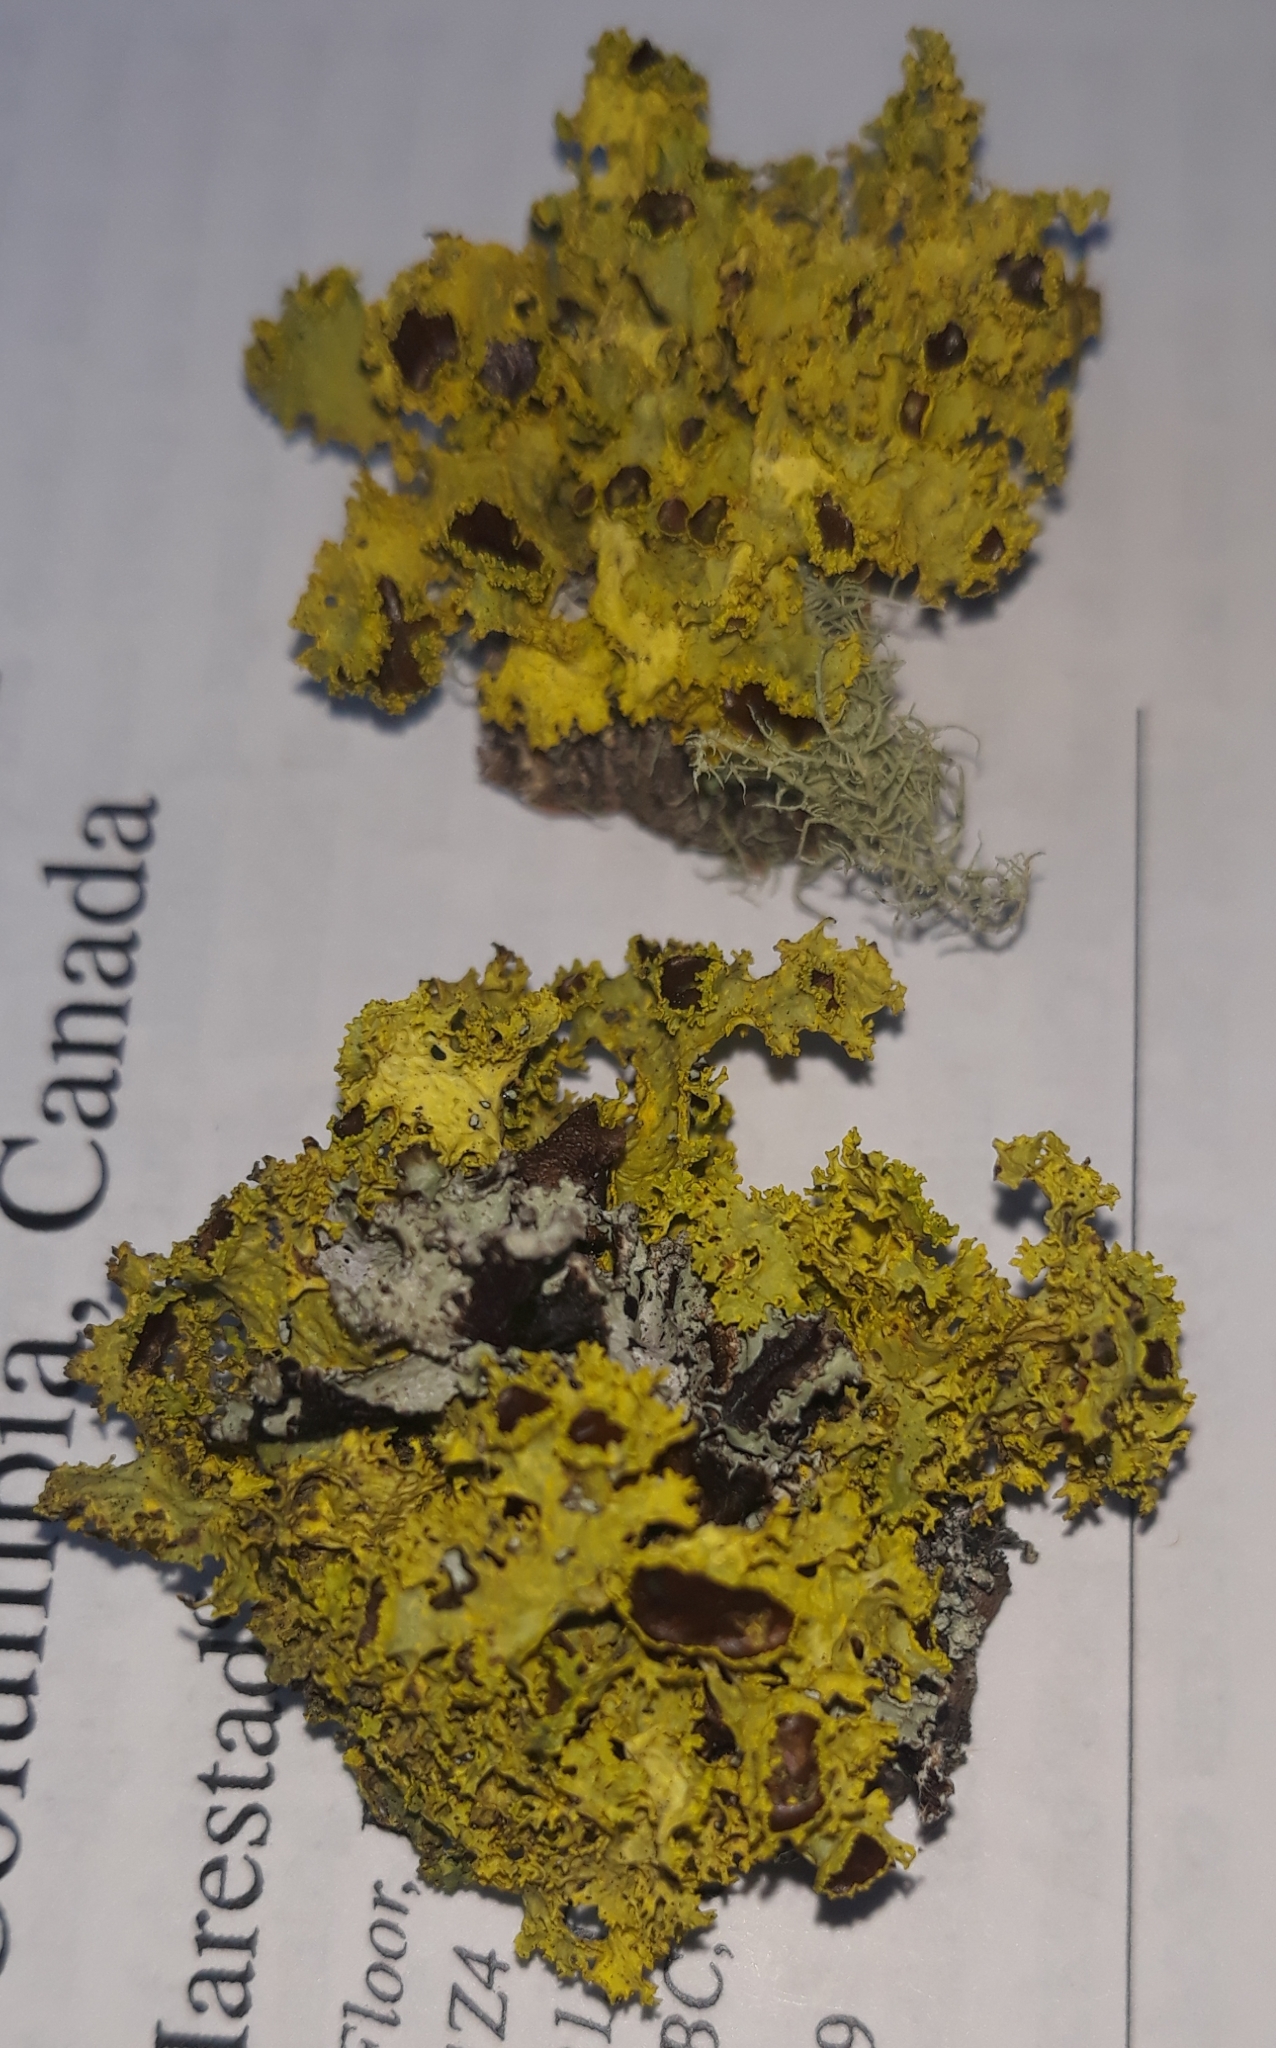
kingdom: Fungi
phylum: Ascomycota
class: Lecanoromycetes
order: Lecanorales
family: Parmeliaceae
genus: Vulpicida
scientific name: Vulpicida canadensis
